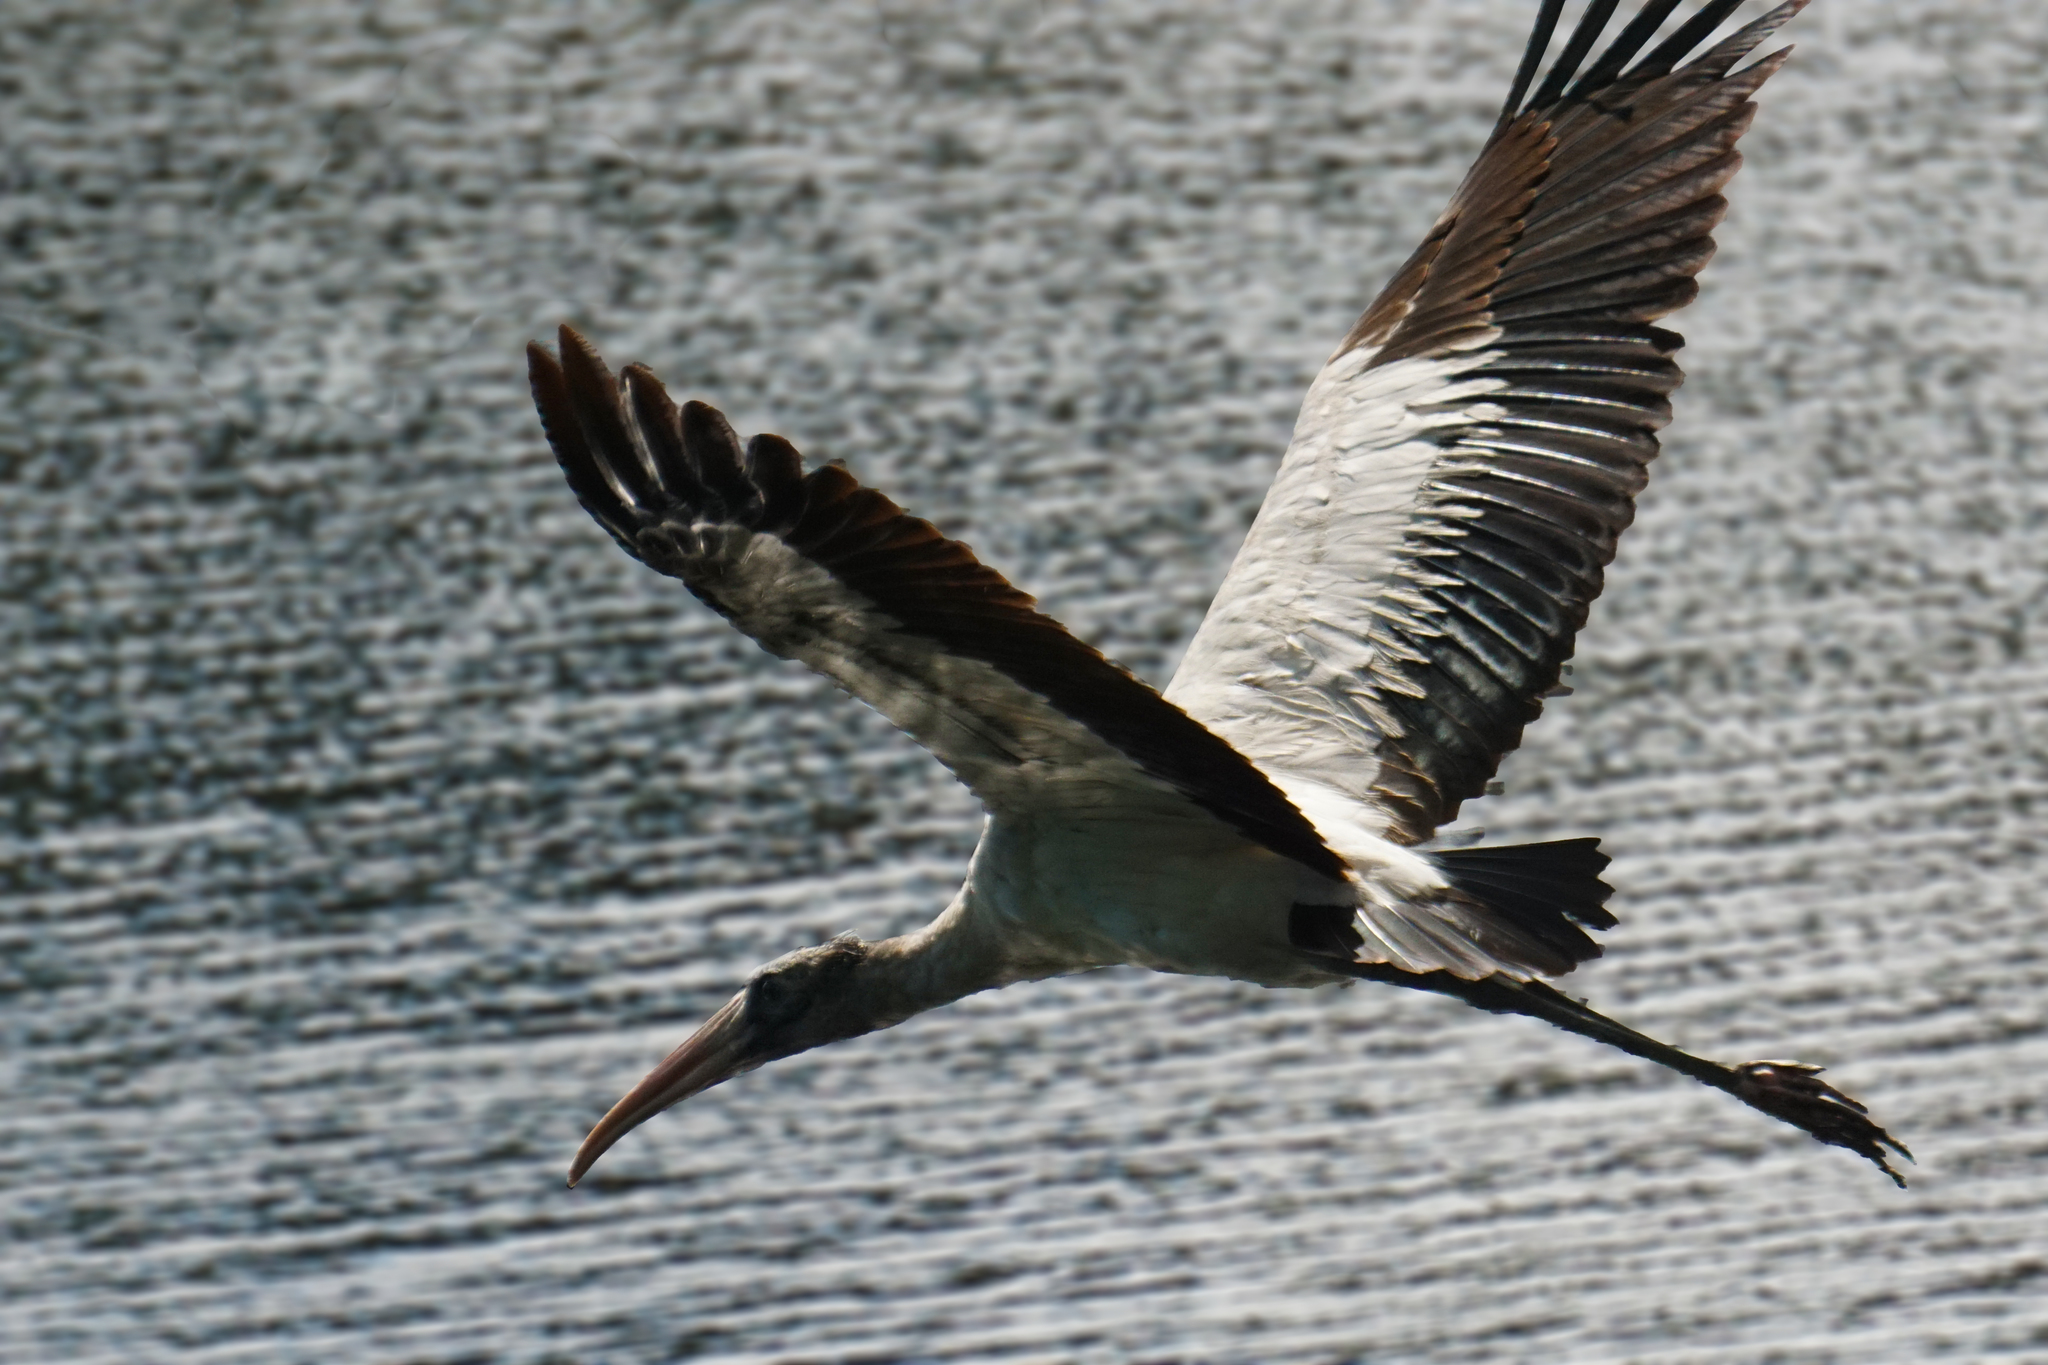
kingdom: Animalia
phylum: Chordata
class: Aves
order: Ciconiiformes
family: Ciconiidae
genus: Mycteria
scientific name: Mycteria americana
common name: Wood stork
